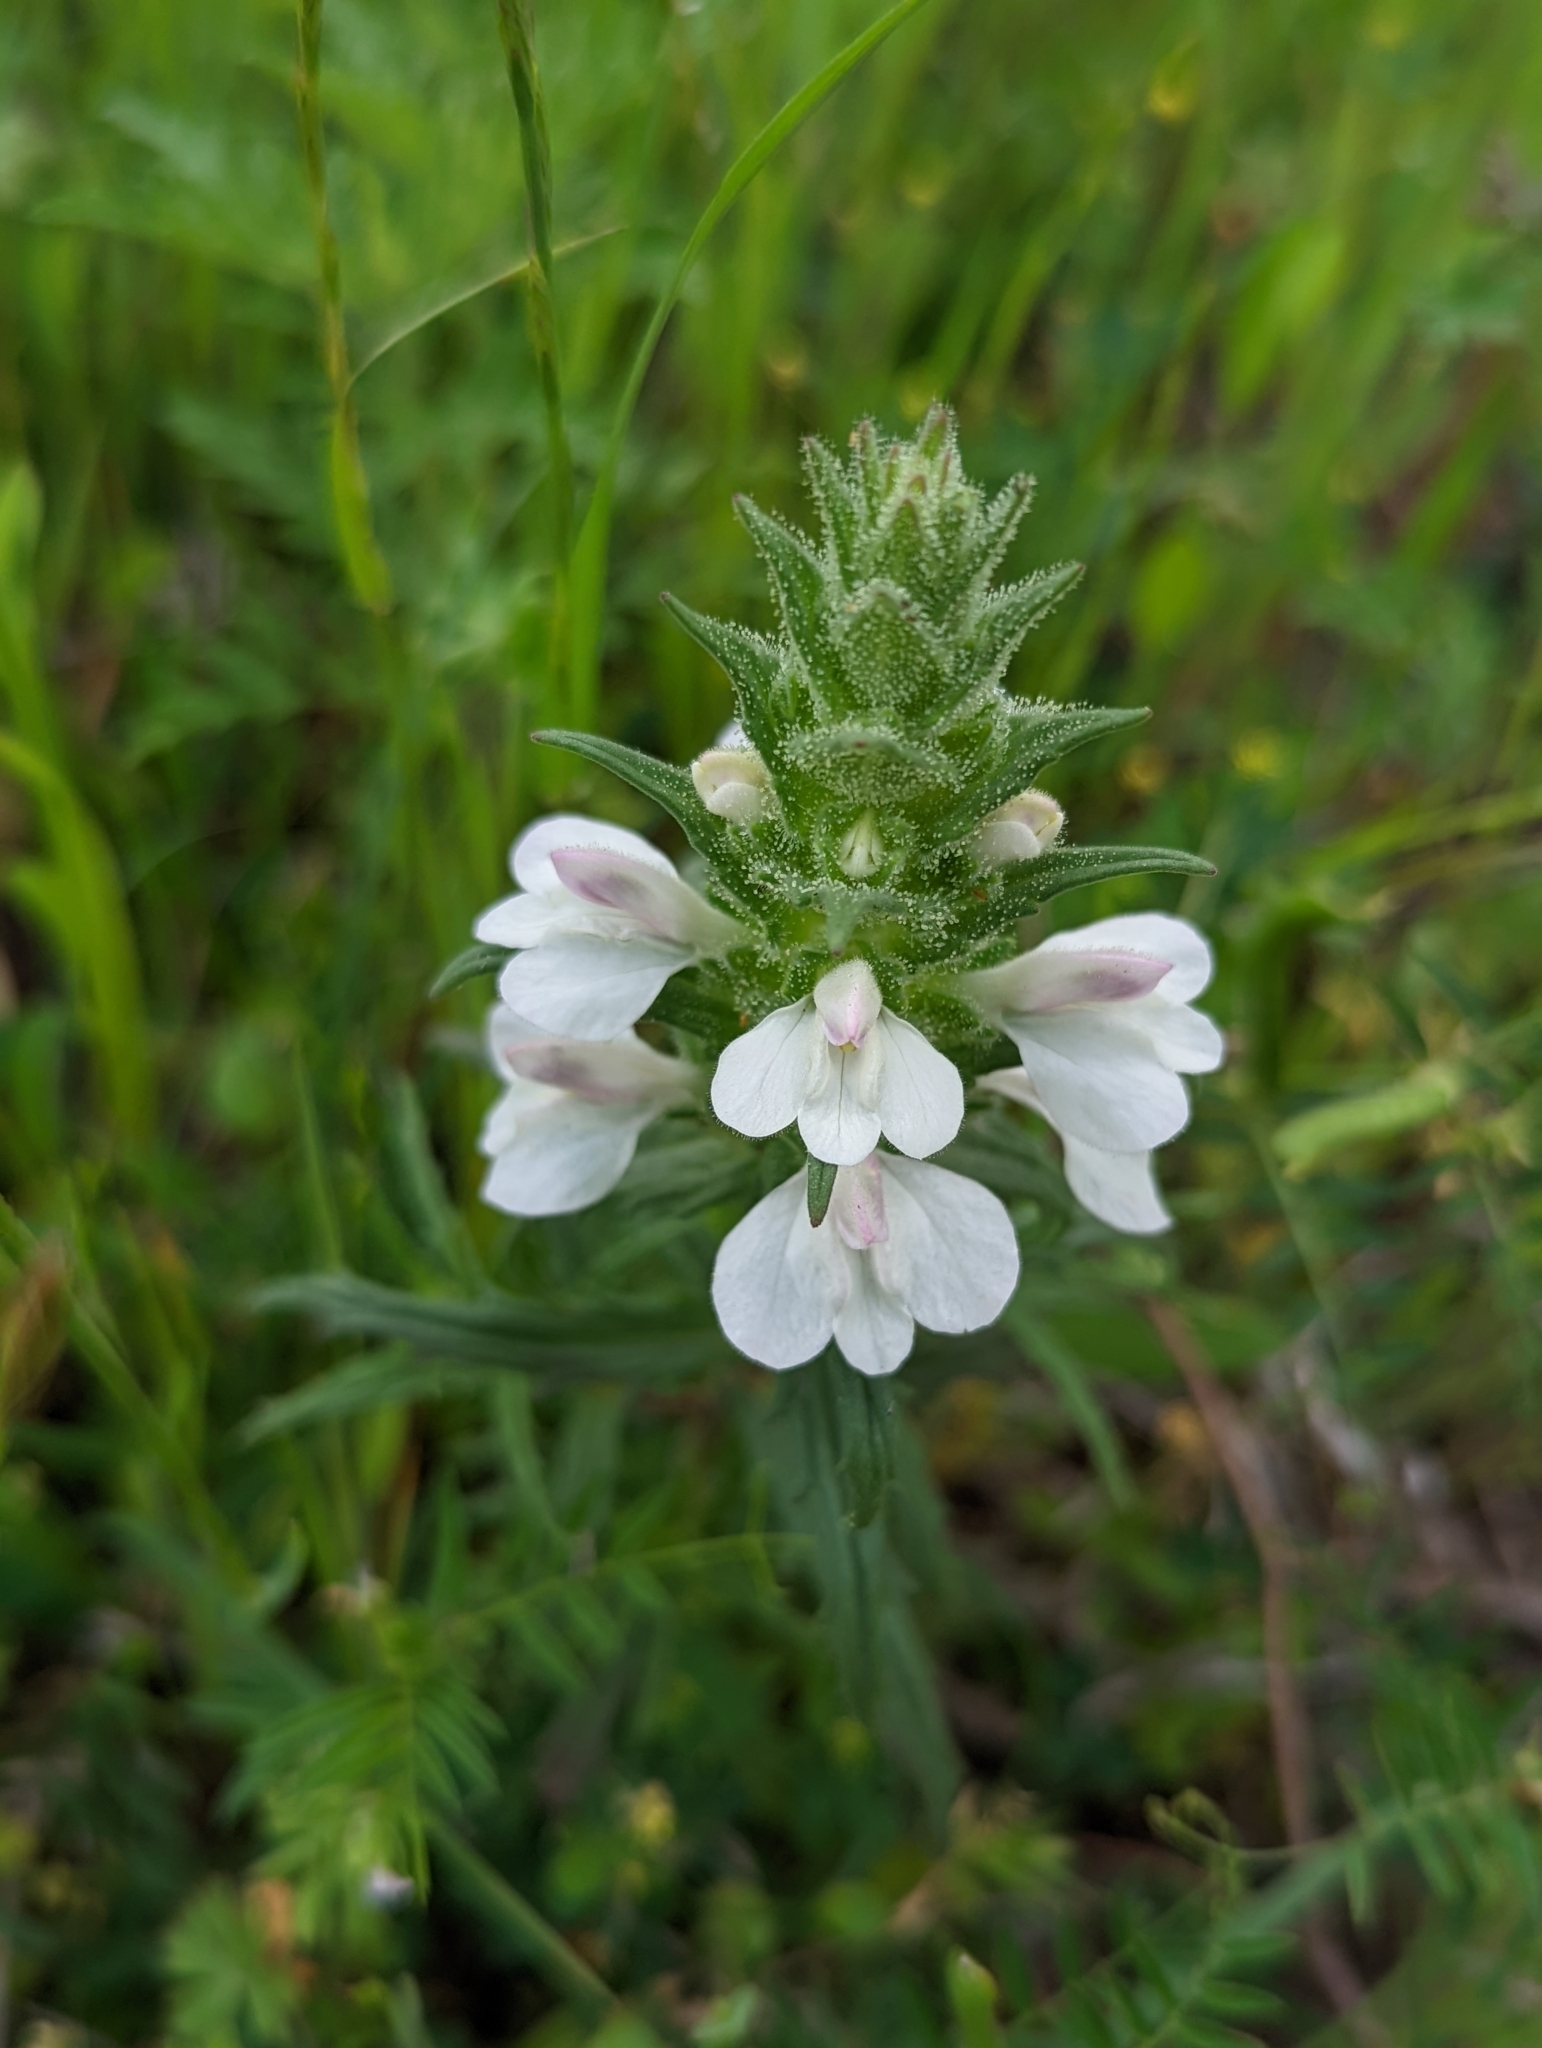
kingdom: Plantae
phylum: Tracheophyta
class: Magnoliopsida
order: Lamiales
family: Orobanchaceae
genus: Bellardia
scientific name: Bellardia trixago
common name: Mediterranean lineseed
